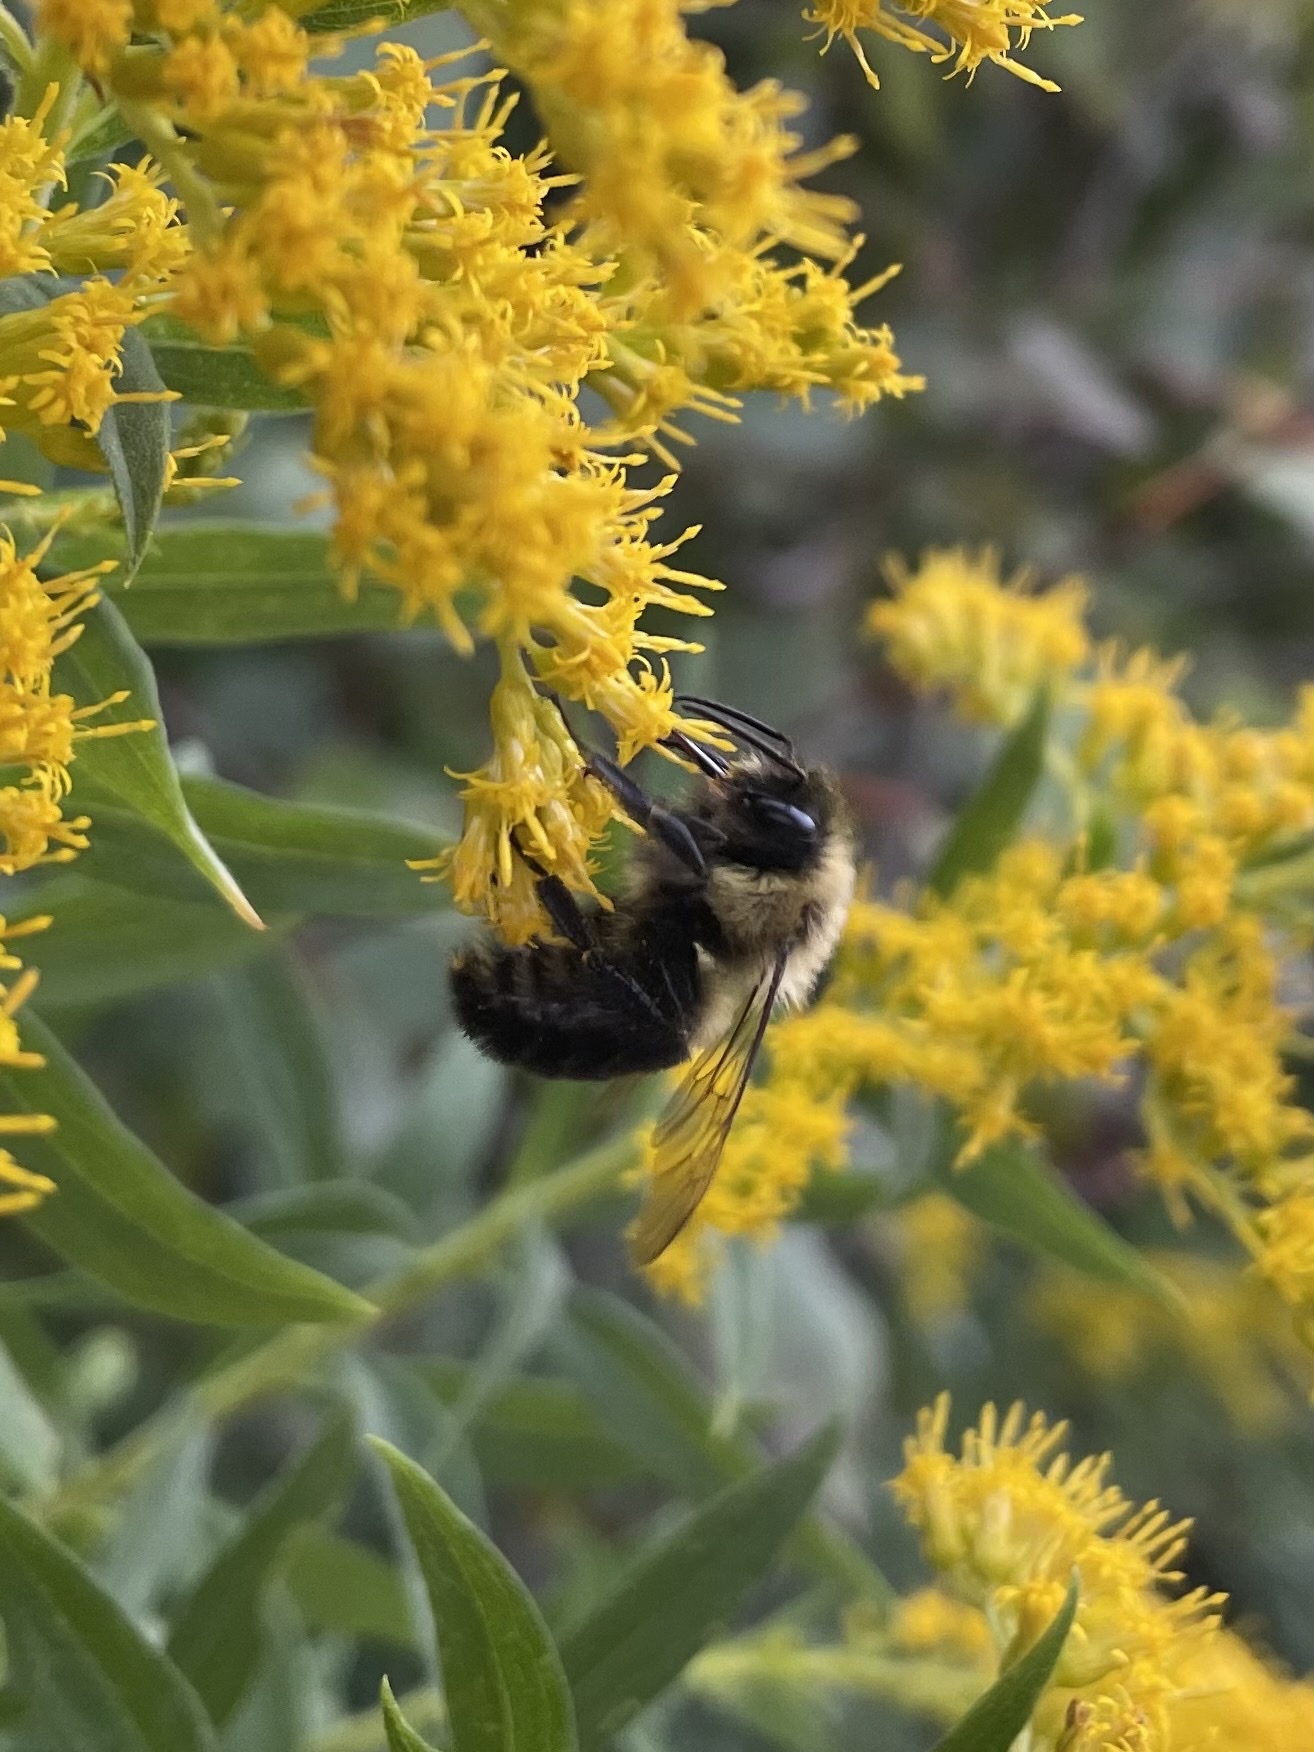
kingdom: Animalia
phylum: Arthropoda
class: Insecta
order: Hymenoptera
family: Apidae
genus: Bombus
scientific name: Bombus impatiens
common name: Common eastern bumble bee
